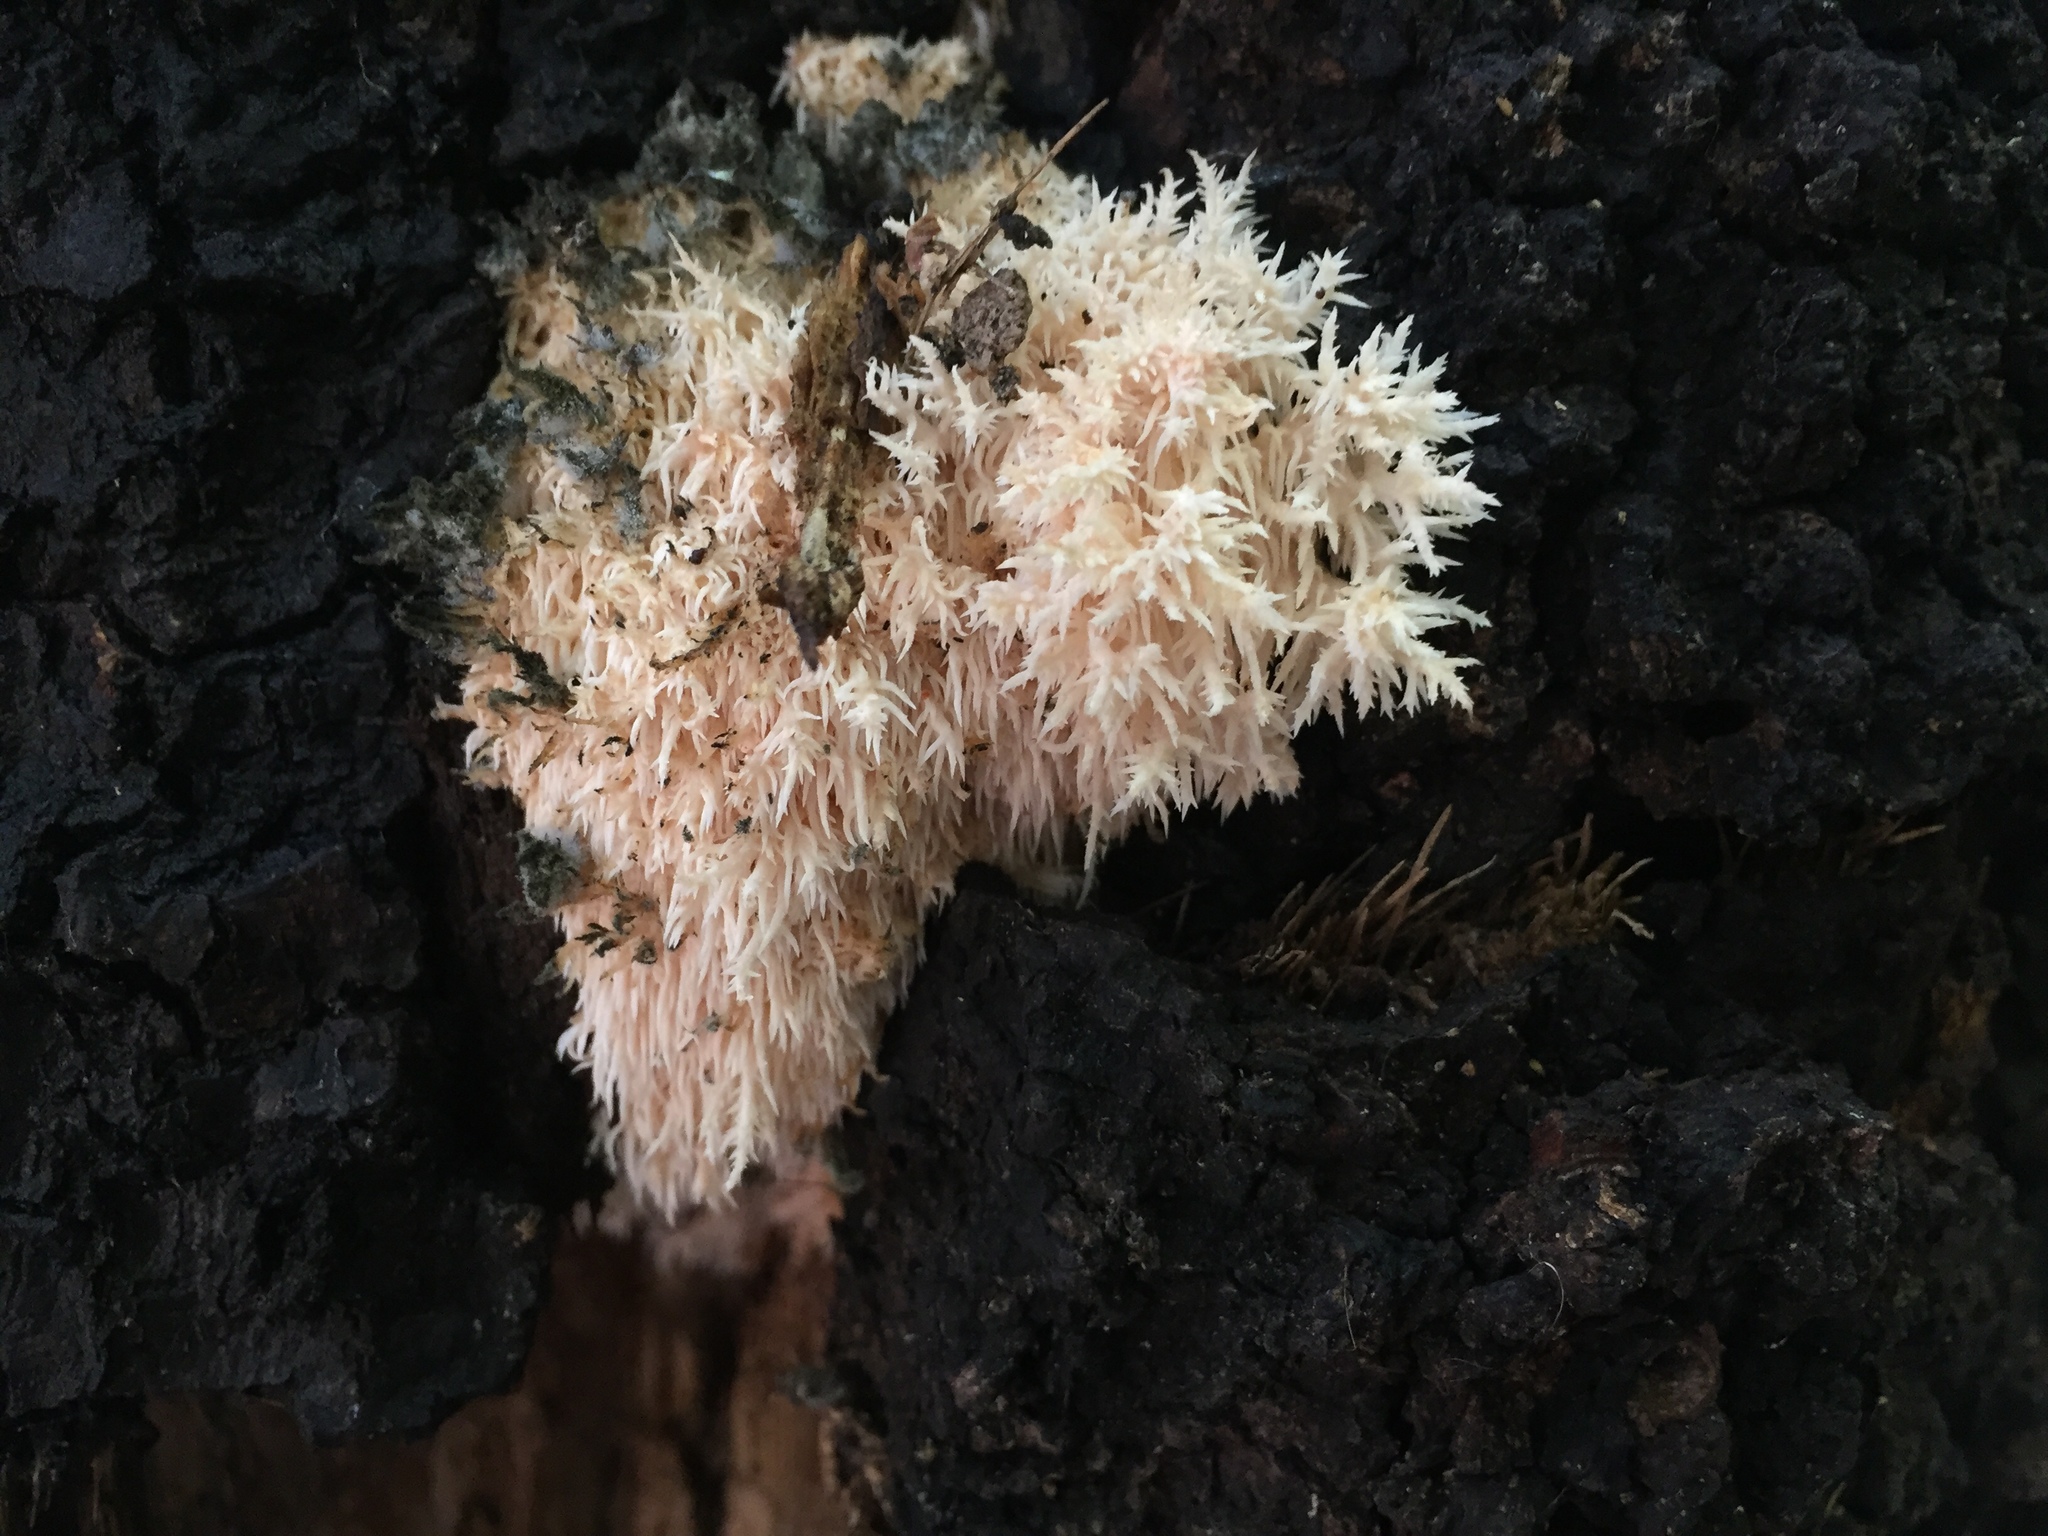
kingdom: Fungi
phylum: Basidiomycota
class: Agaricomycetes
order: Russulales
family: Hericiaceae
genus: Hericium
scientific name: Hericium novae-zealandiae
